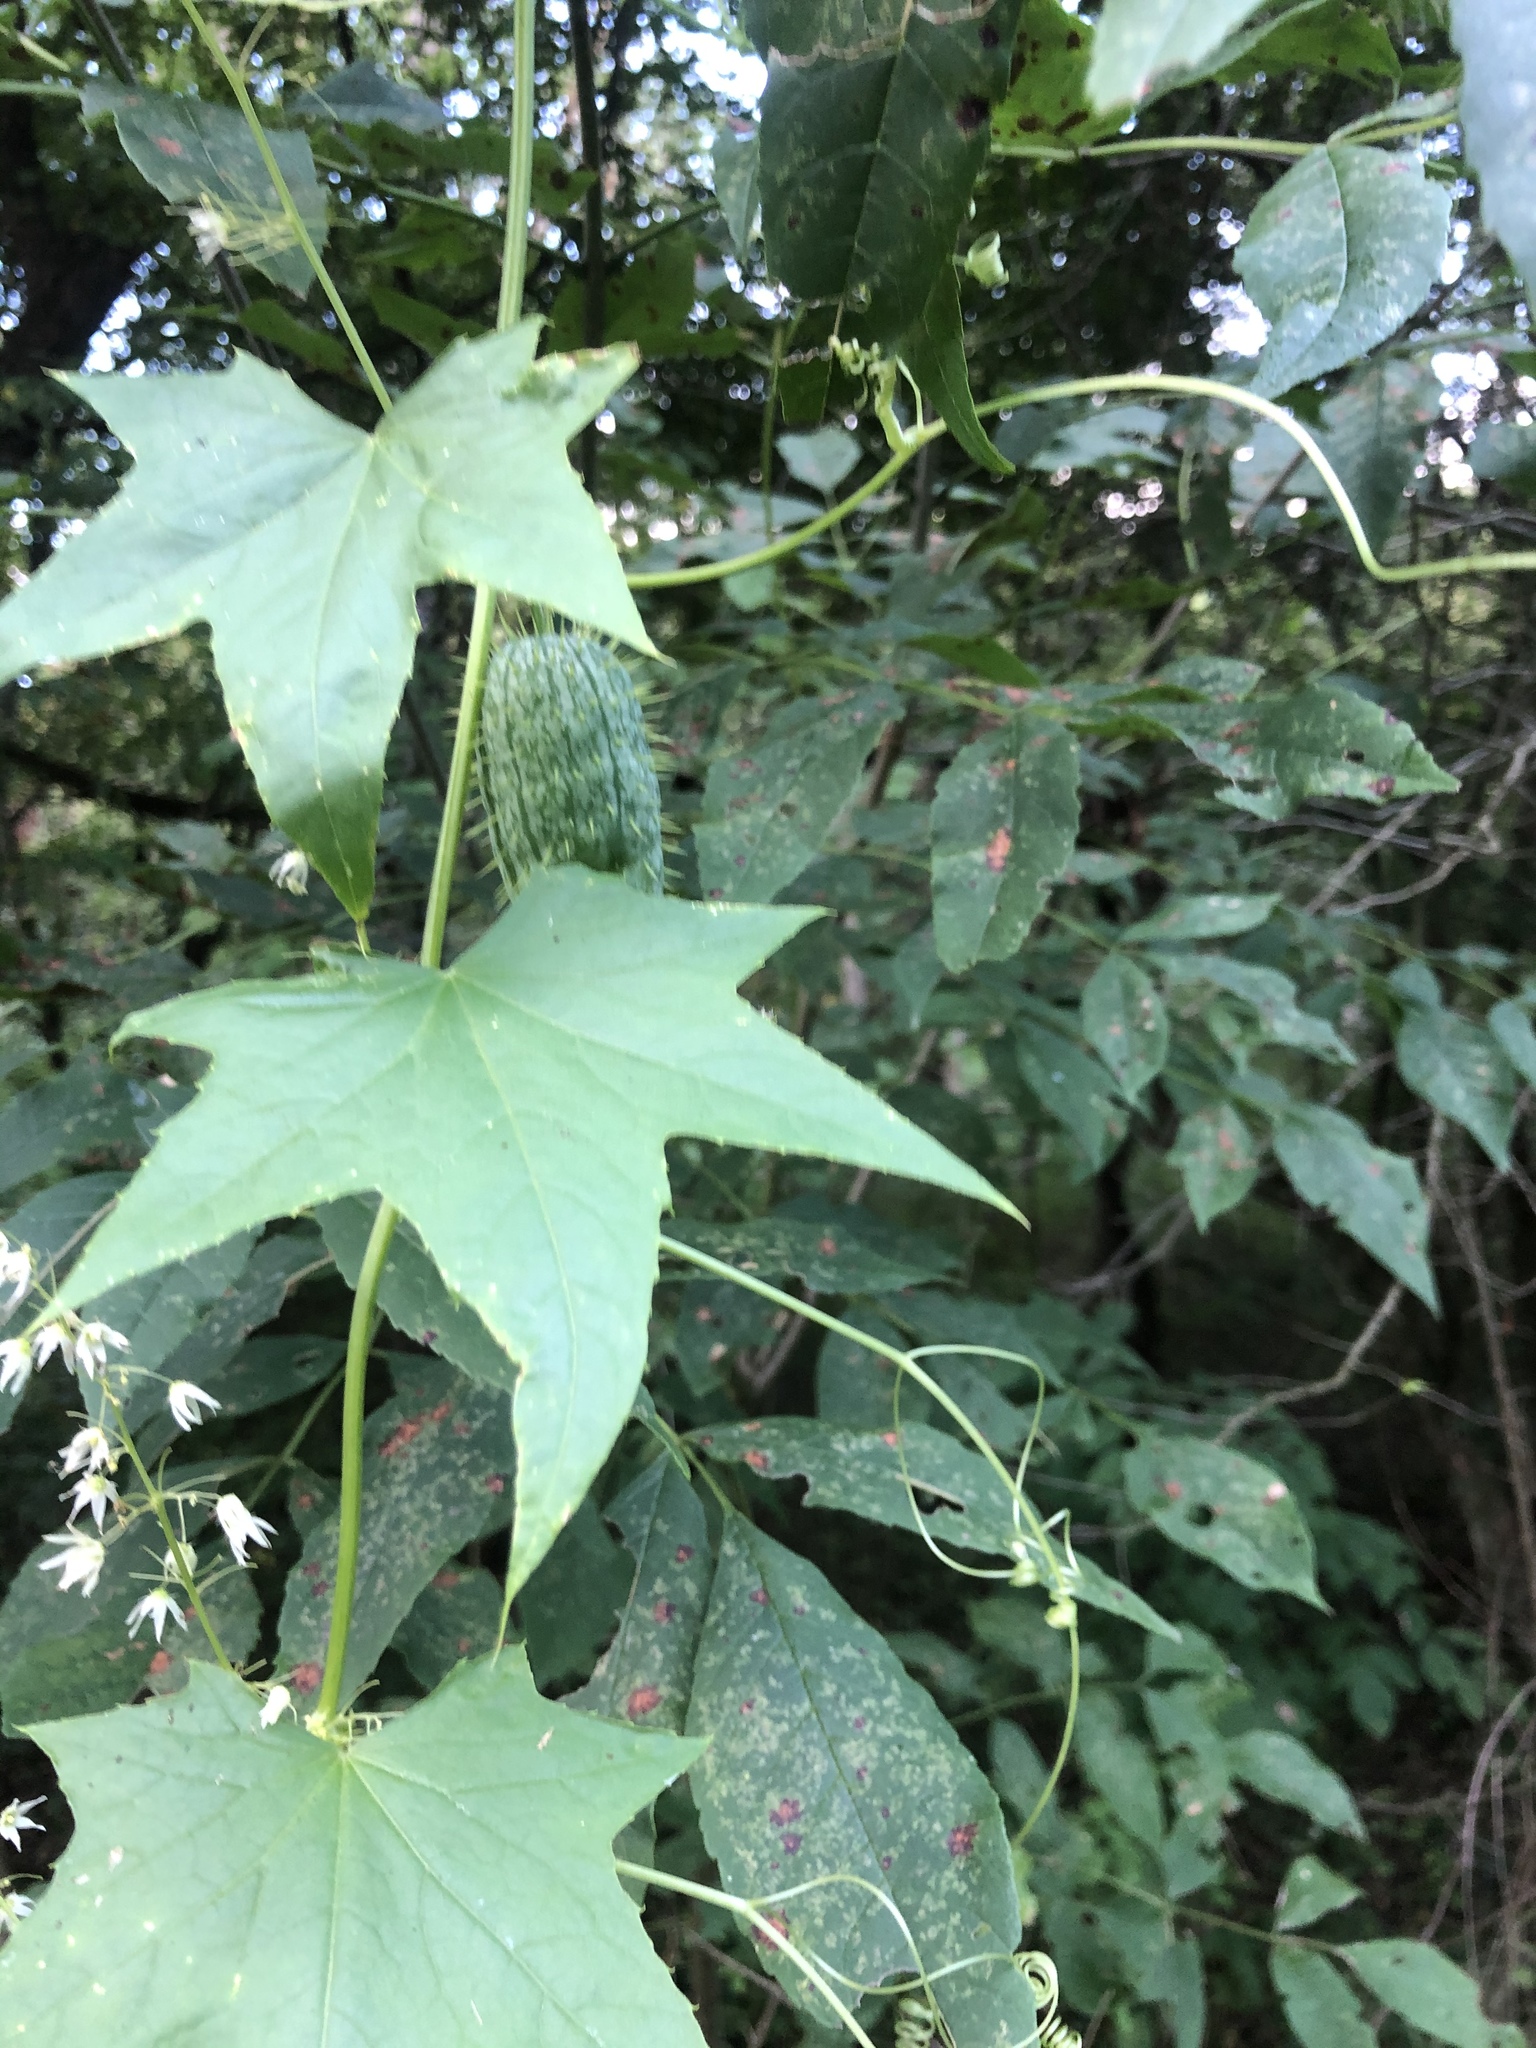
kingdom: Plantae
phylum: Tracheophyta
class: Magnoliopsida
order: Cucurbitales
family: Cucurbitaceae
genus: Echinocystis
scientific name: Echinocystis lobata
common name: Wild cucumber
